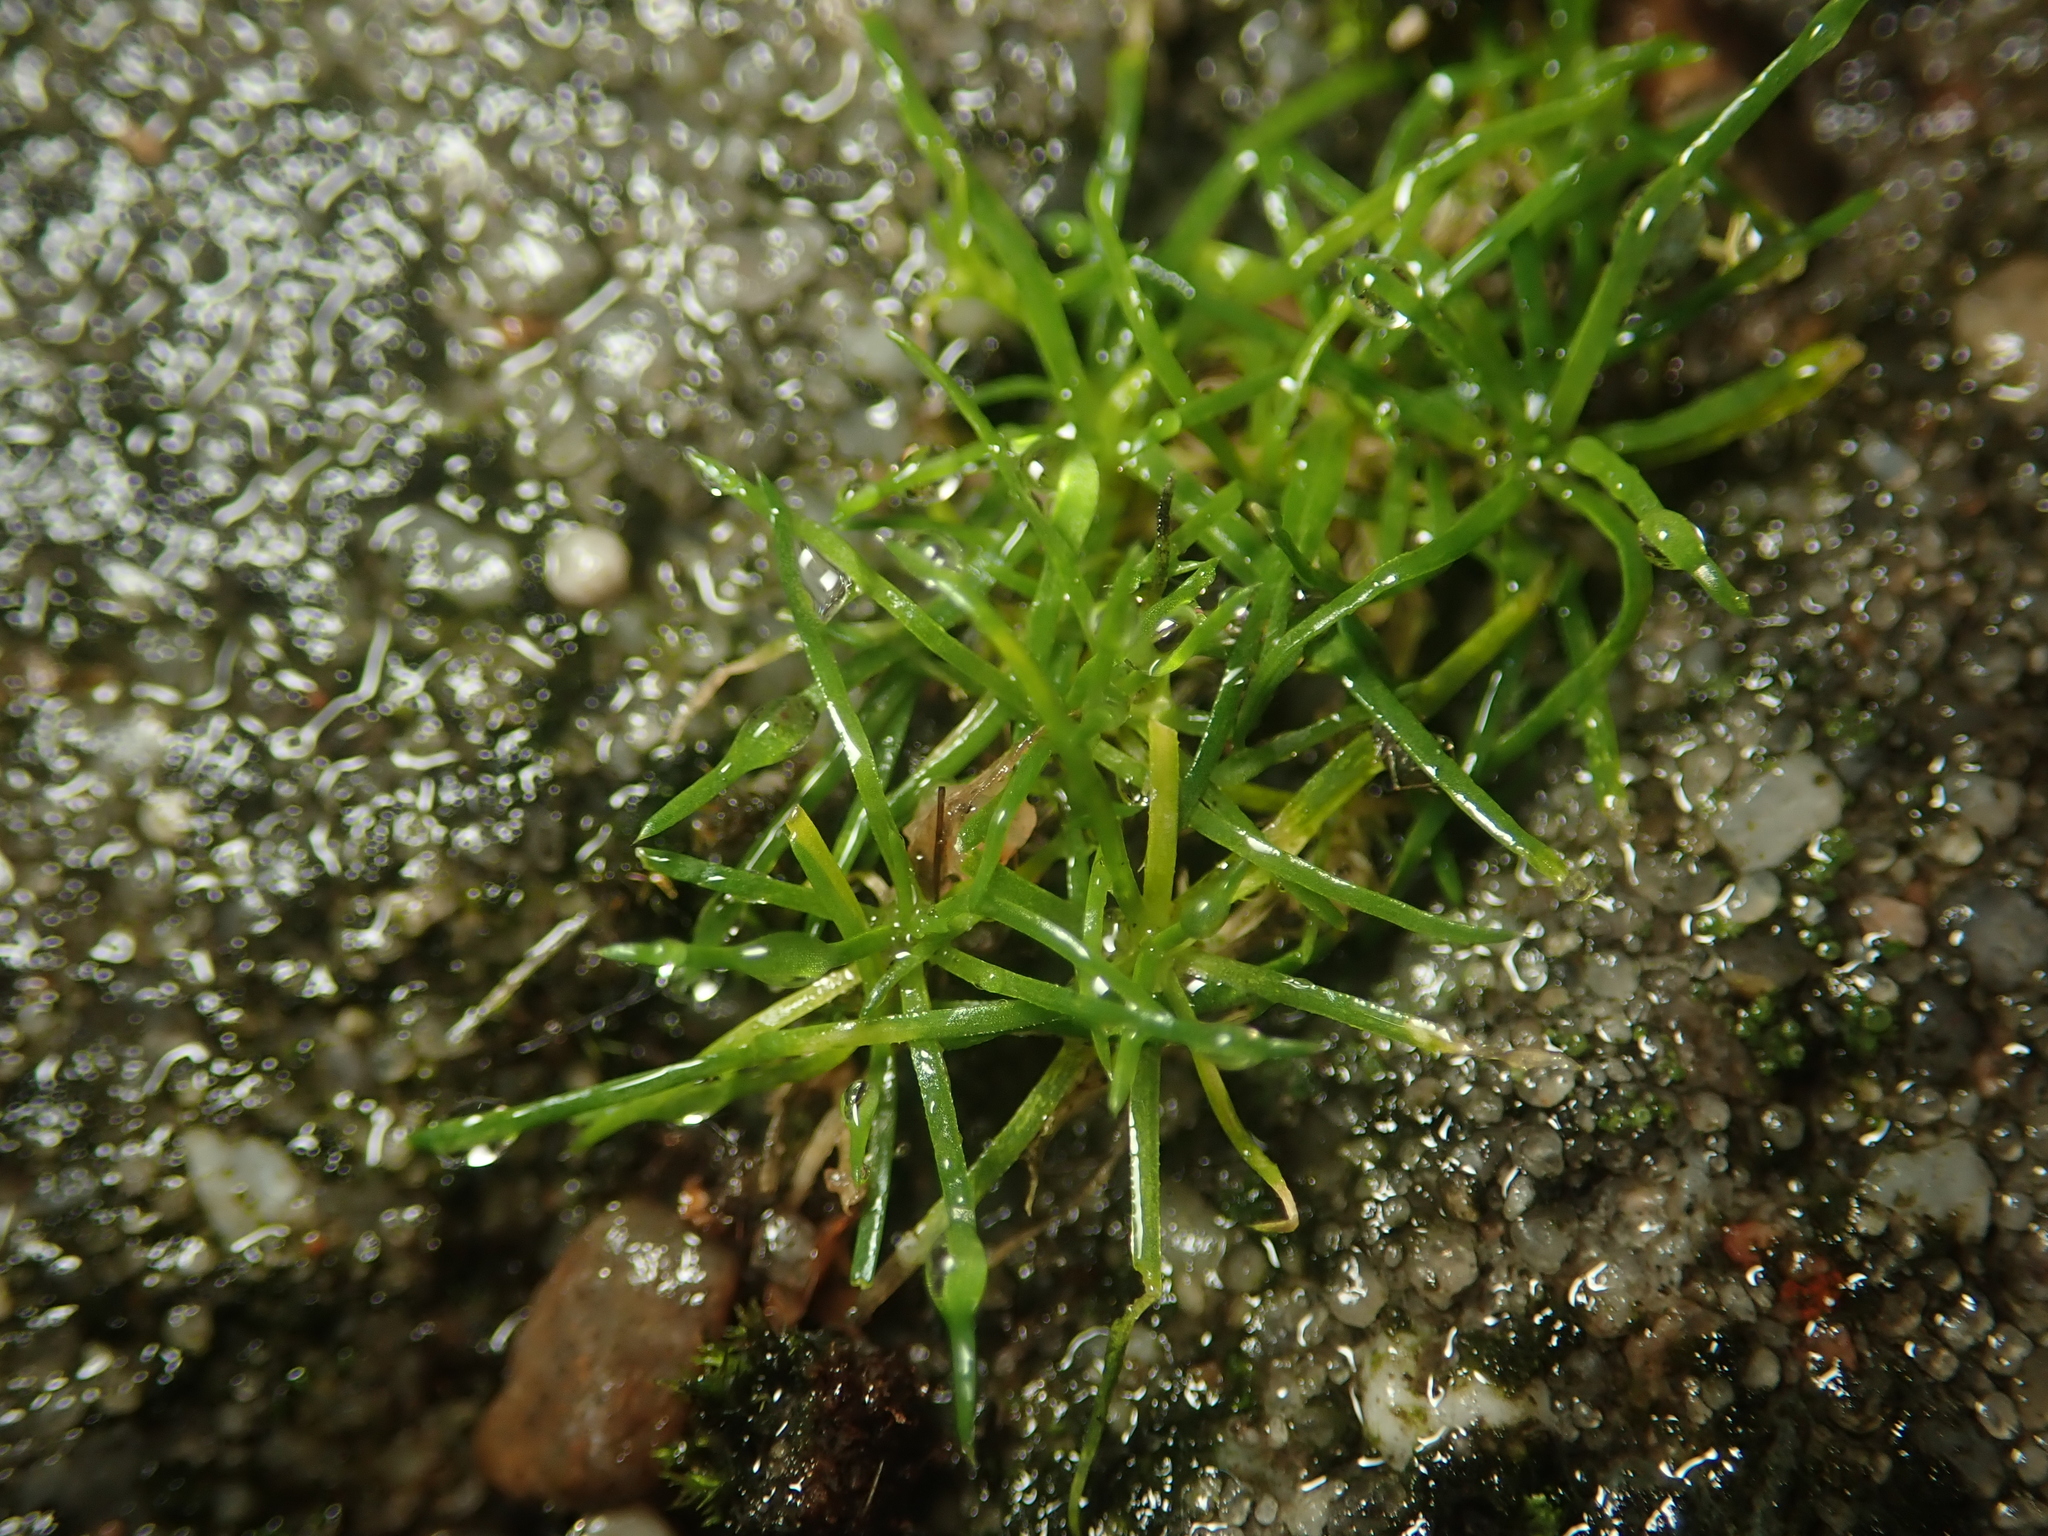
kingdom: Plantae
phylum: Tracheophyta
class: Magnoliopsida
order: Caryophyllales
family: Caryophyllaceae
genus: Sagina
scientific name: Sagina procumbens
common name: Procumbent pearlwort
